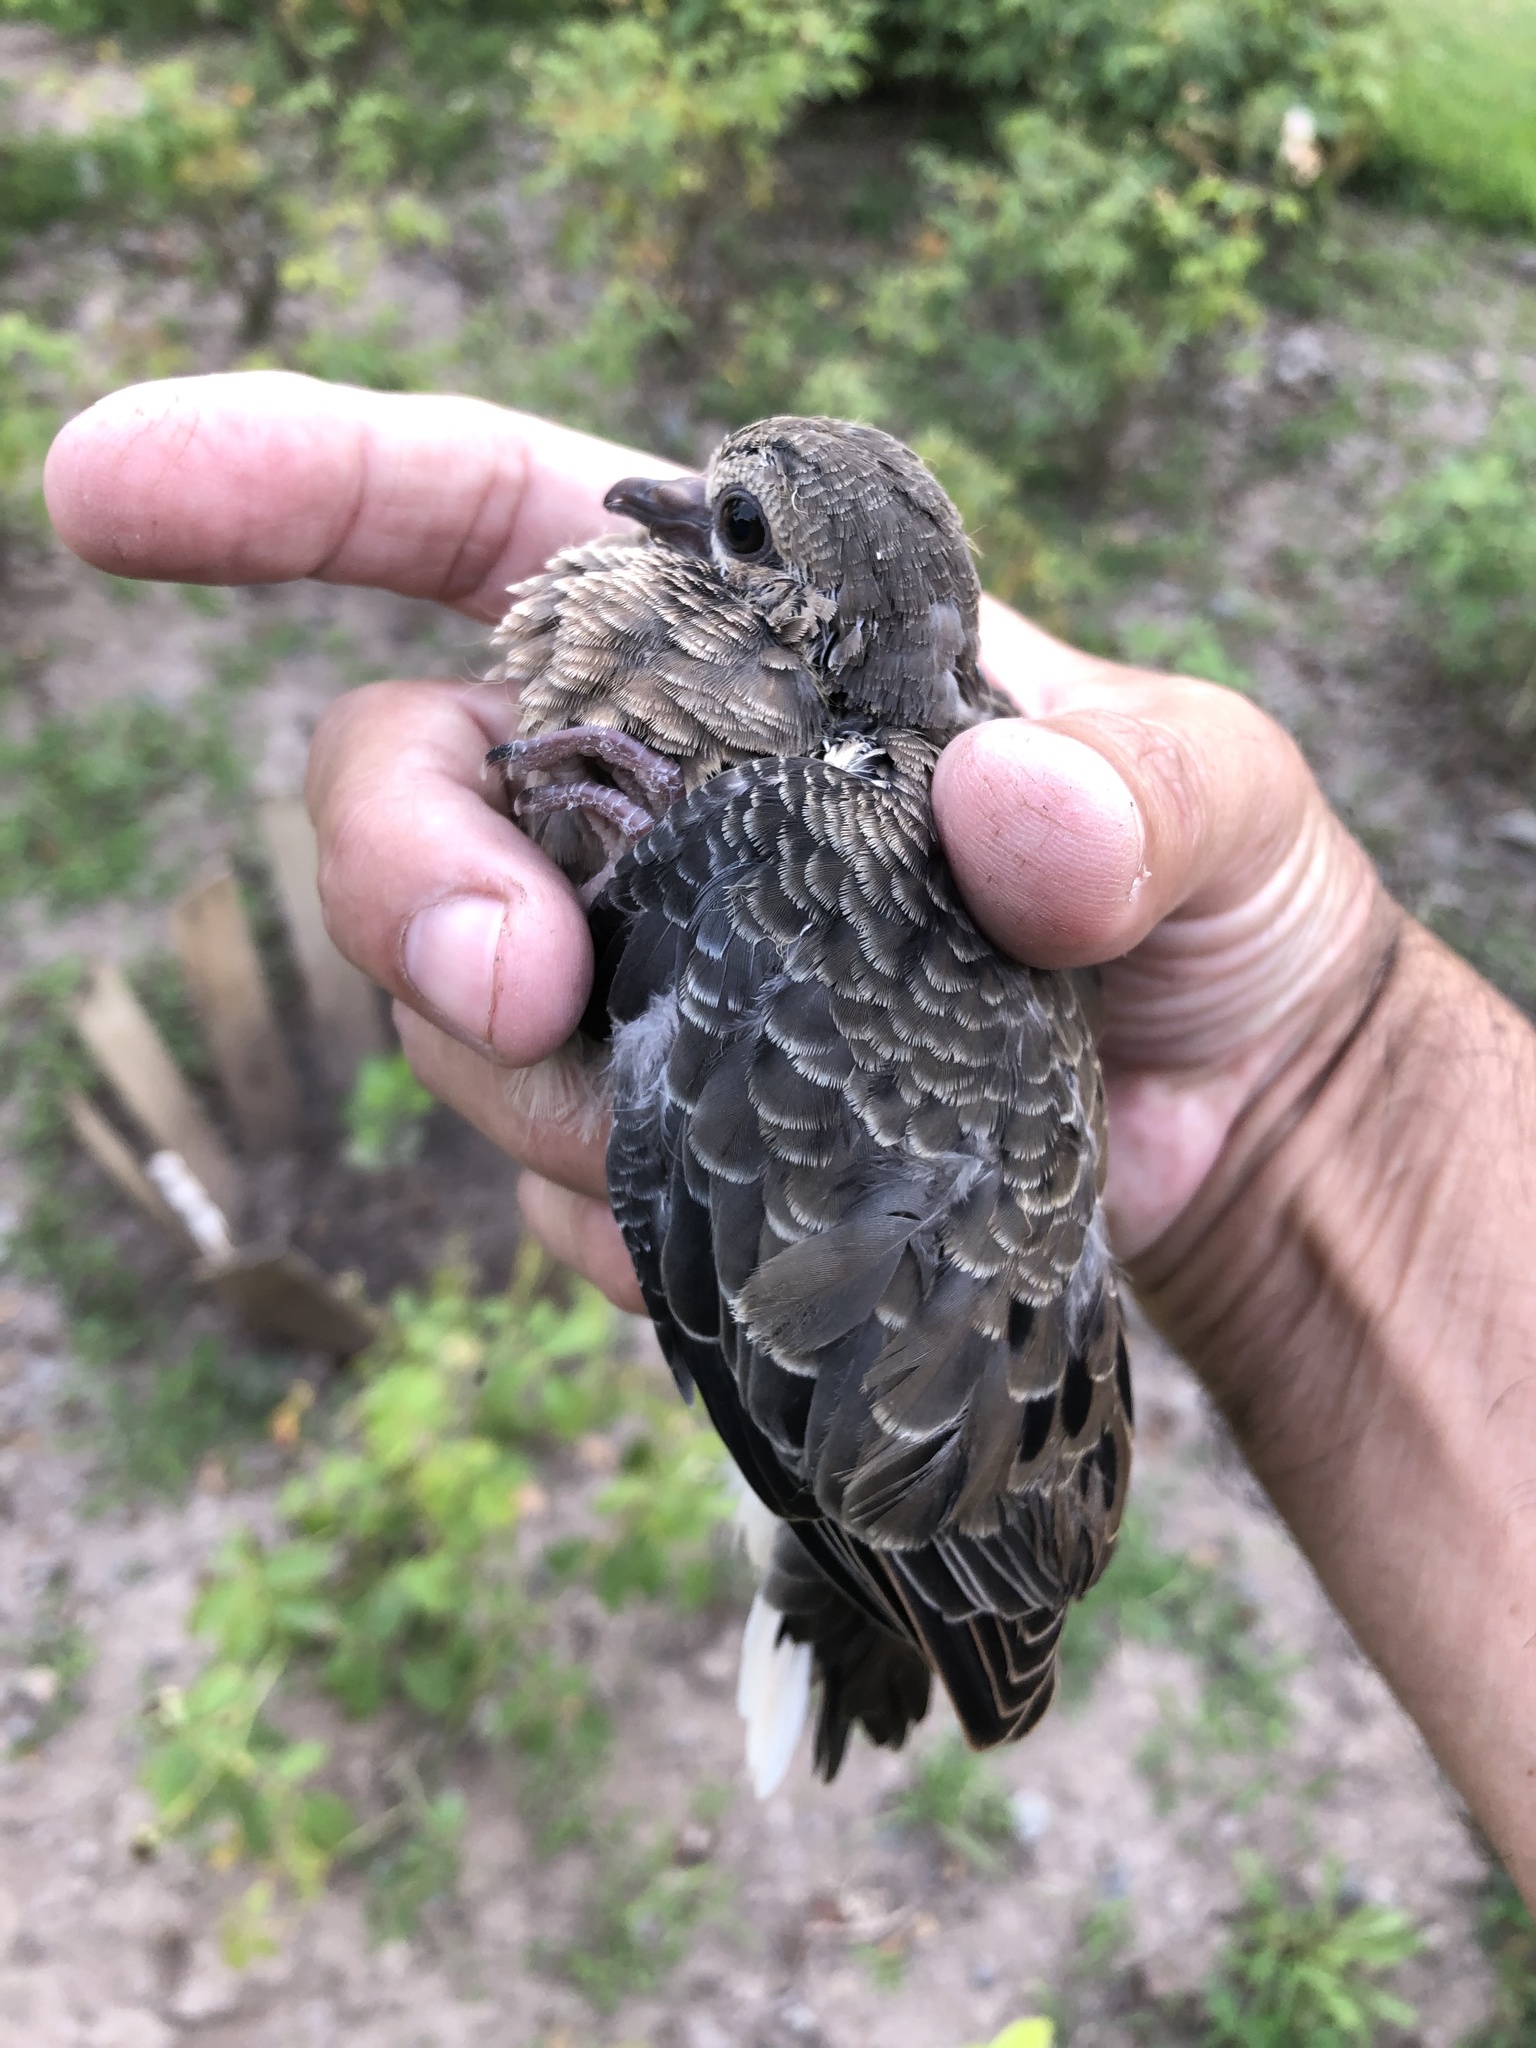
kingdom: Animalia
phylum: Chordata
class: Aves
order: Columbiformes
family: Columbidae
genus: Columbina
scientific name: Columbina cruziana
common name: Croaking ground dove
